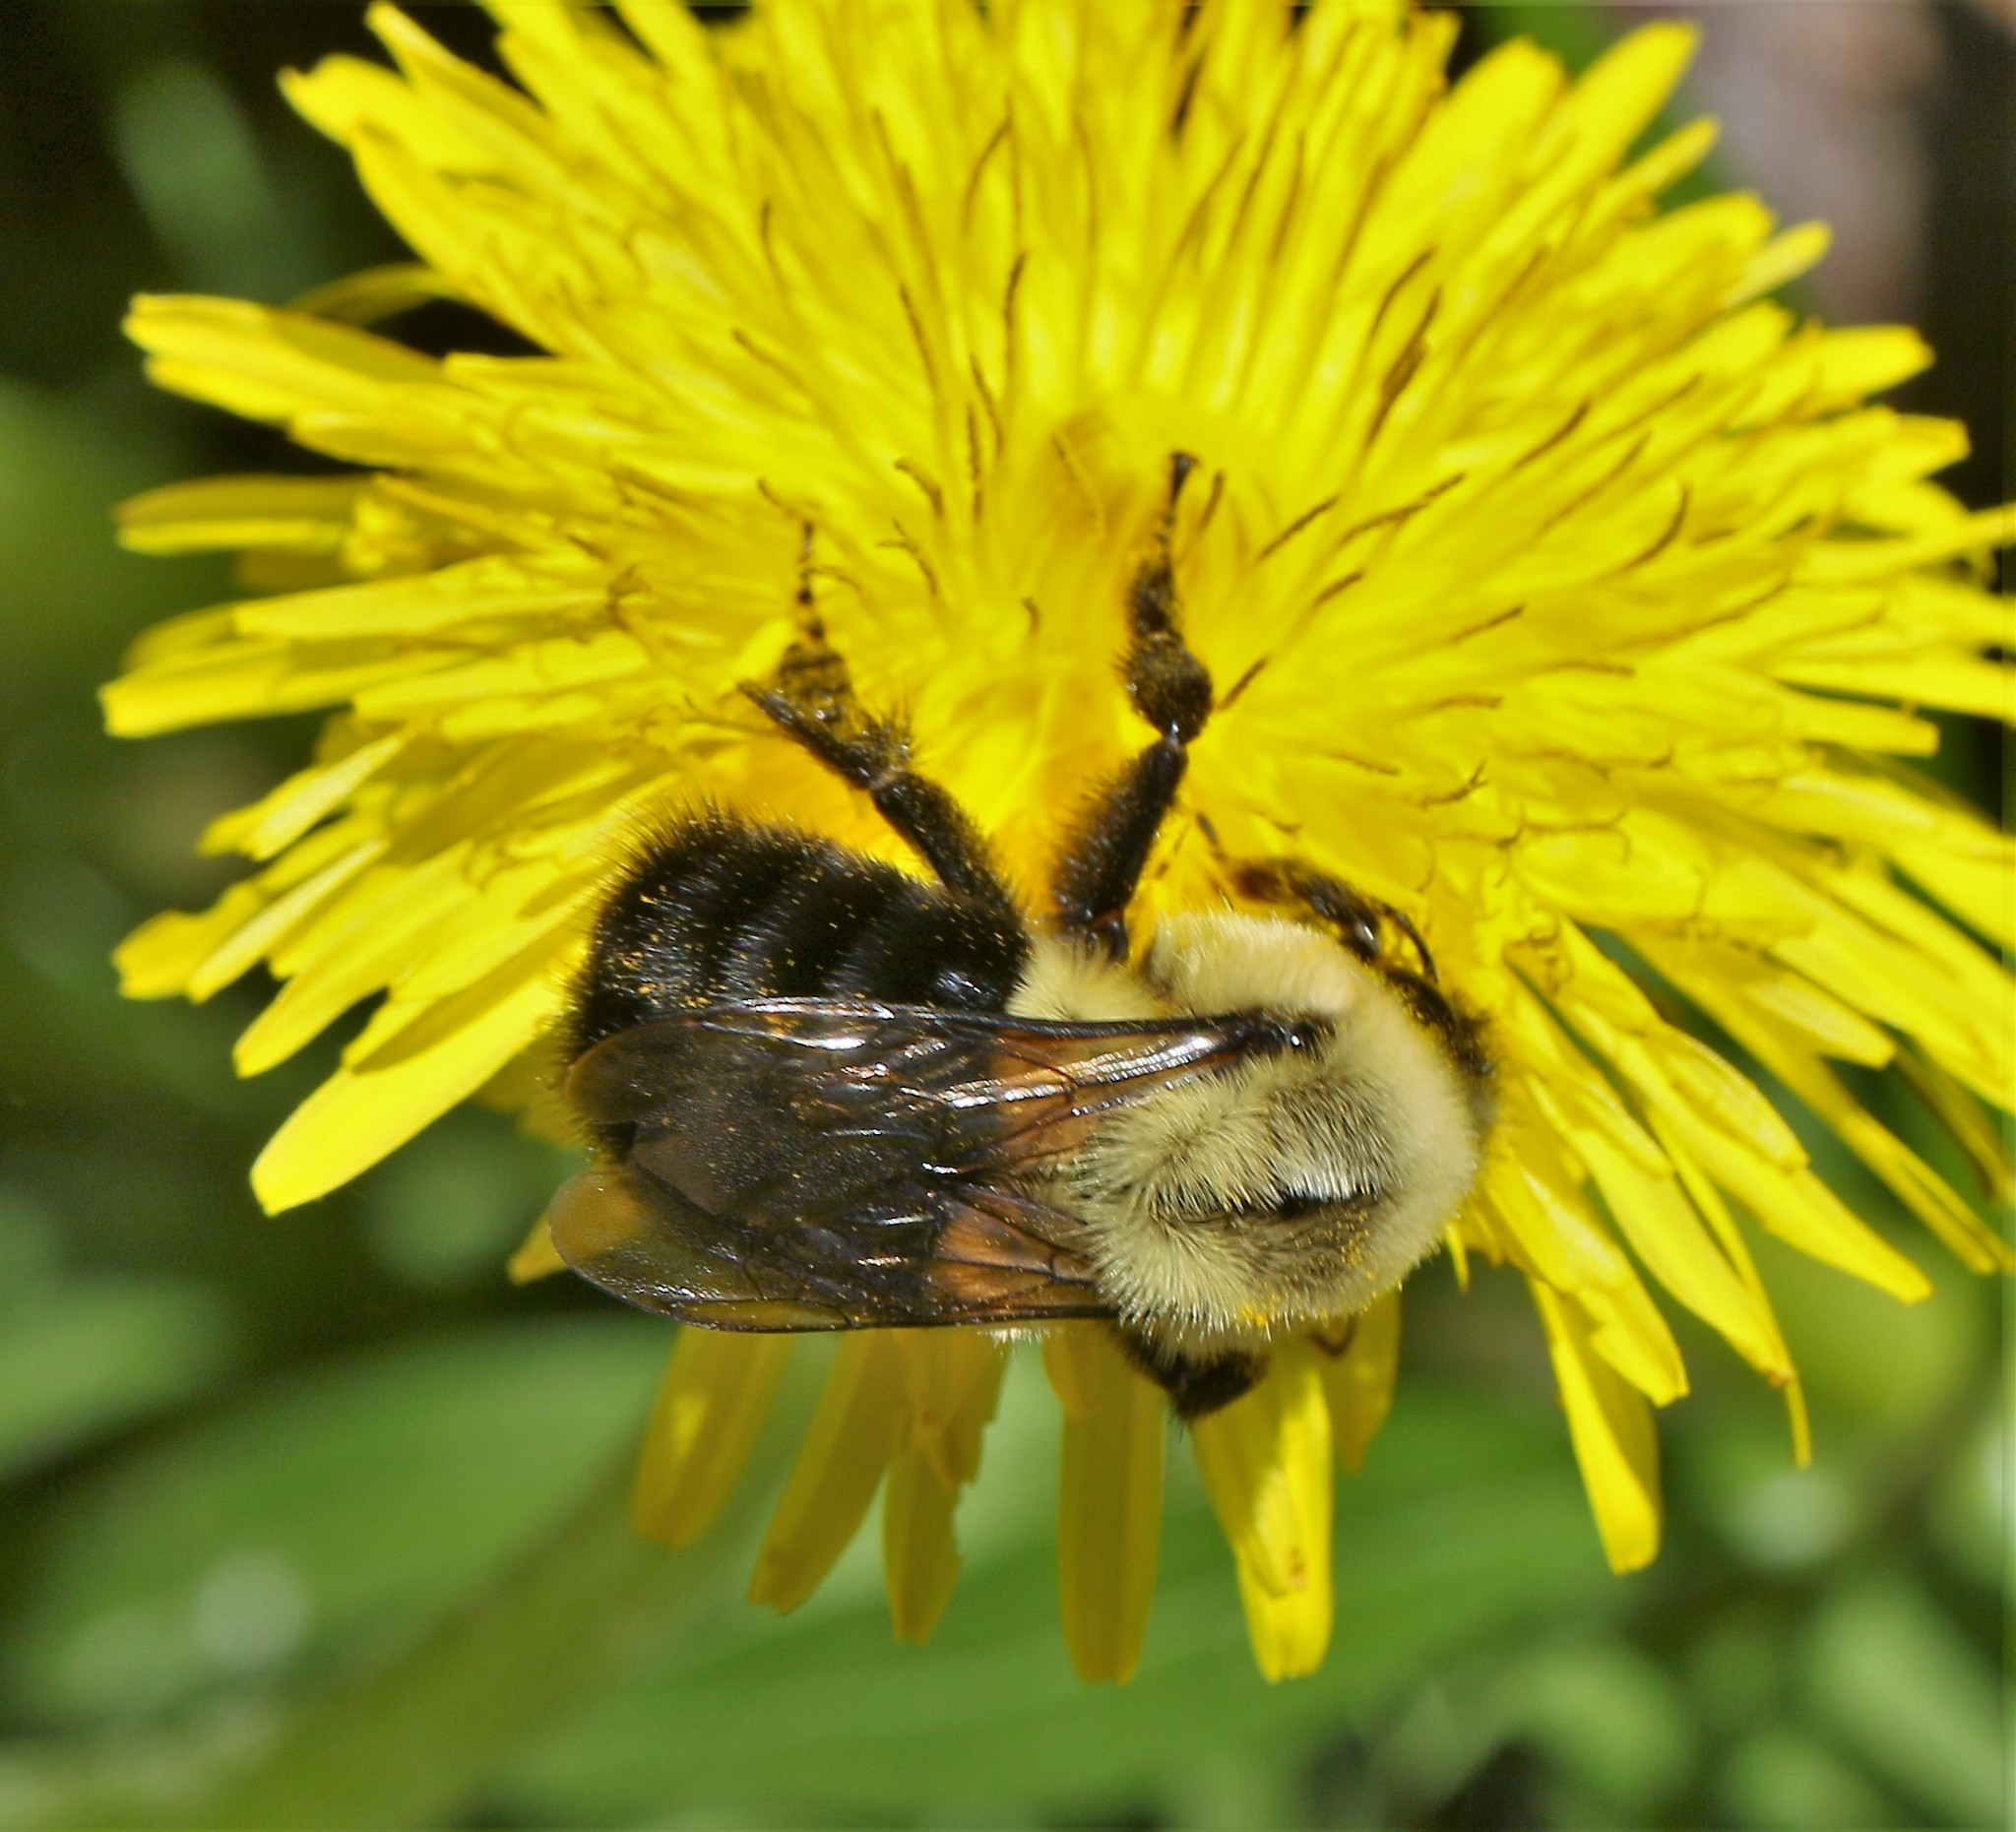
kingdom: Animalia
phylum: Arthropoda
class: Insecta
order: Hymenoptera
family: Apidae
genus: Bombus
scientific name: Bombus impatiens
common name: Common eastern bumble bee
